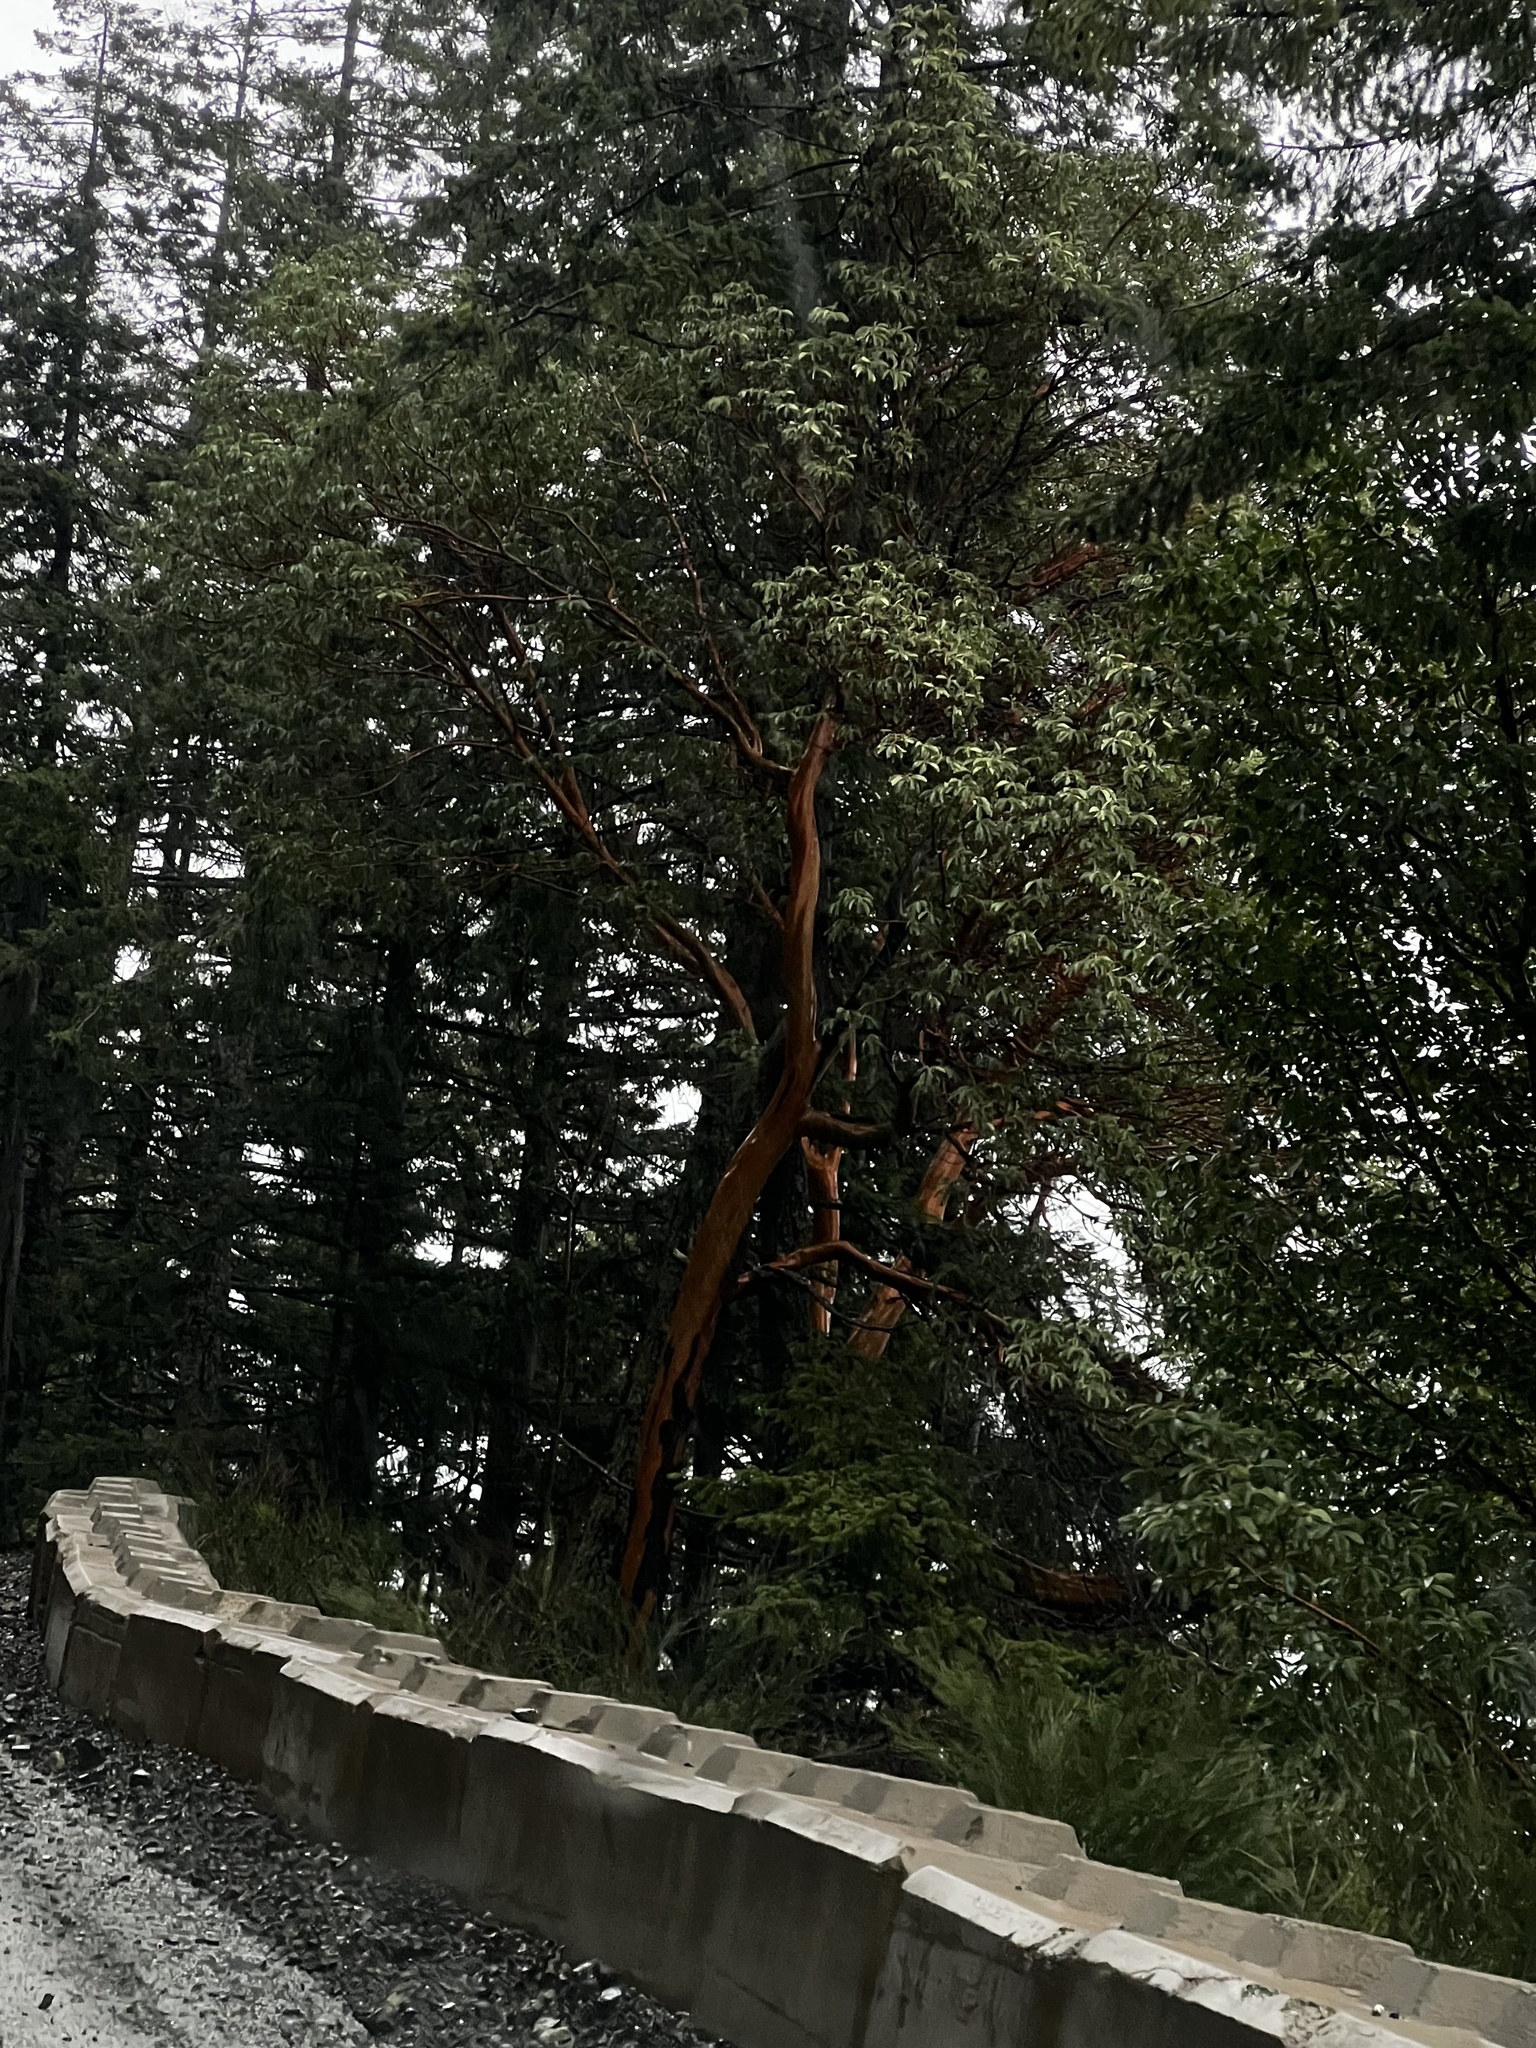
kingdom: Plantae
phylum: Tracheophyta
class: Magnoliopsida
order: Ericales
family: Ericaceae
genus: Arbutus
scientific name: Arbutus menziesii
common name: Pacific madrone
